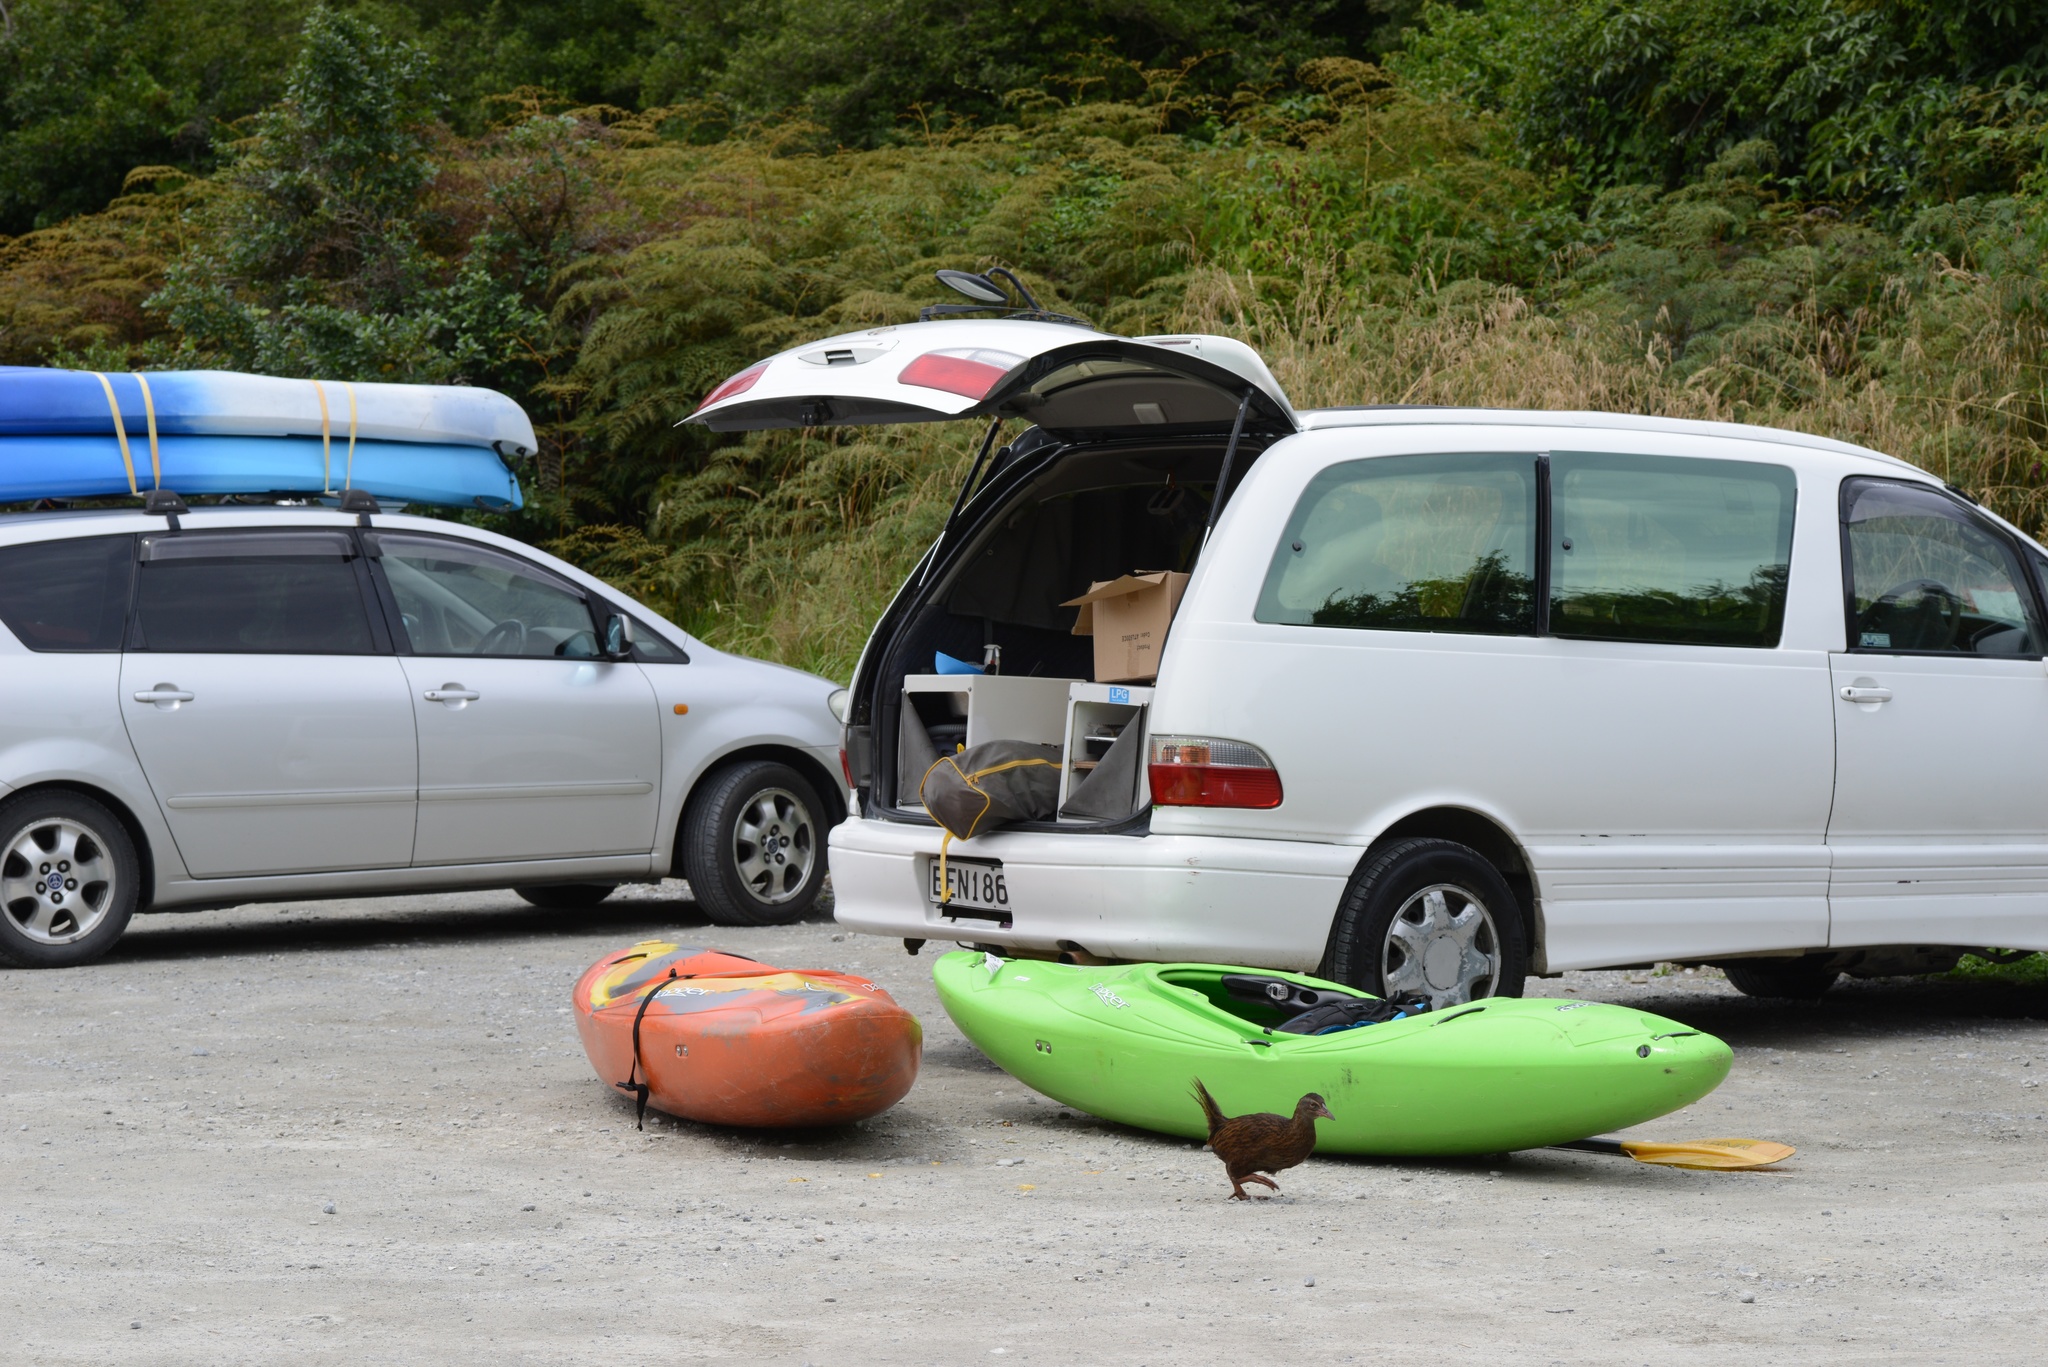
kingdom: Animalia
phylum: Chordata
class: Aves
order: Gruiformes
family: Rallidae
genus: Gallirallus
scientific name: Gallirallus australis
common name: Weka
